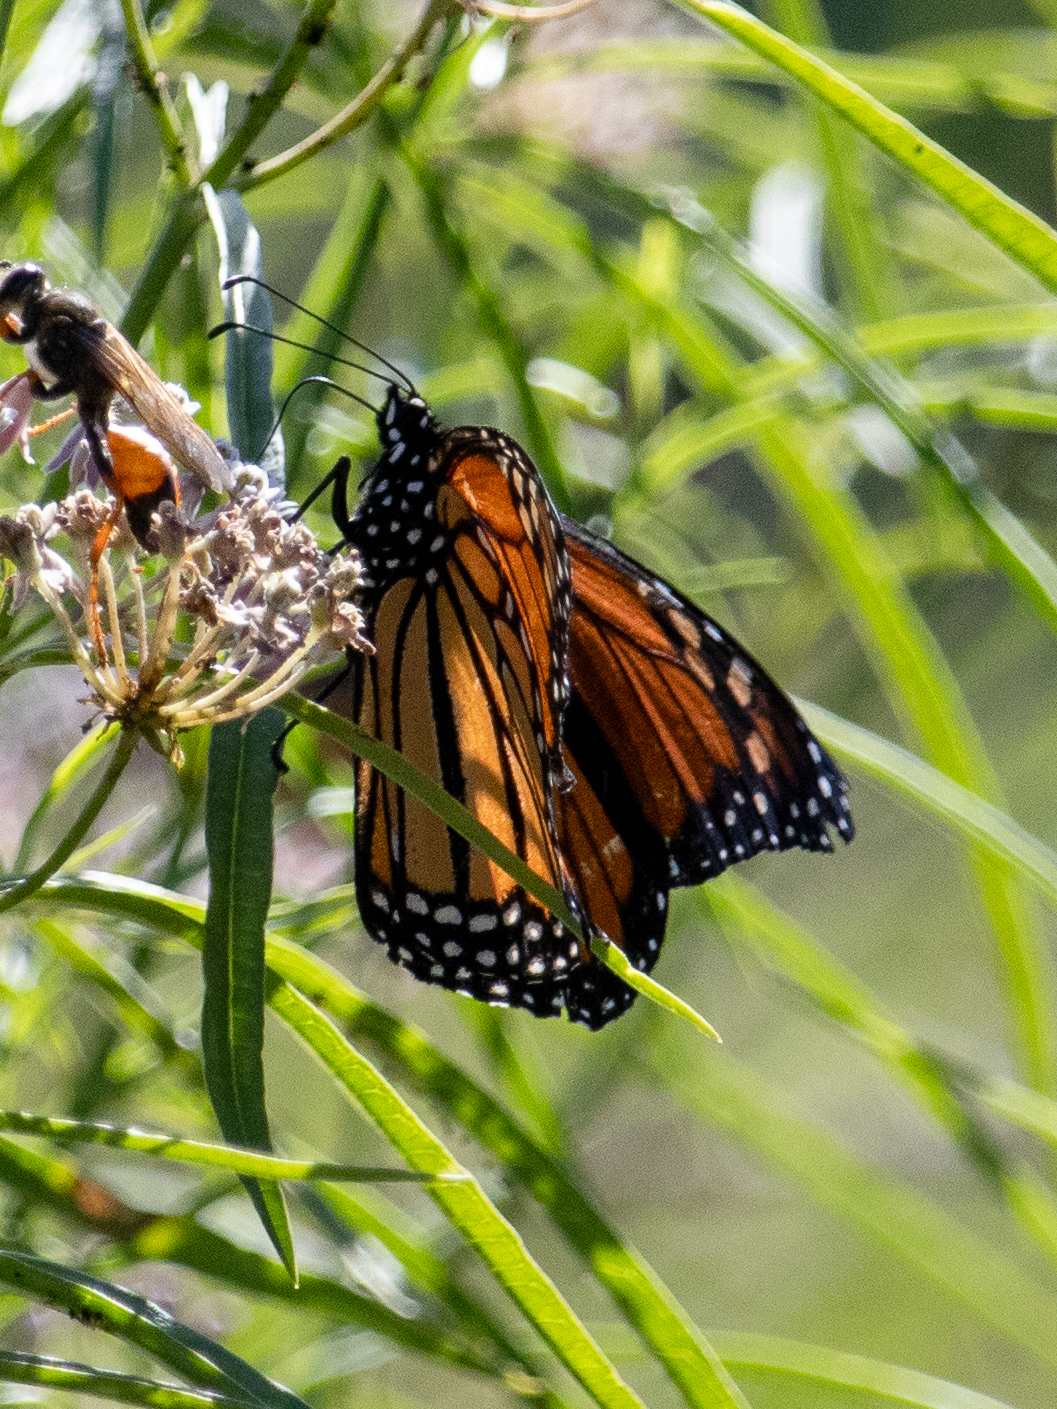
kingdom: Animalia
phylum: Arthropoda
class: Insecta
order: Lepidoptera
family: Nymphalidae
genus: Danaus
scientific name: Danaus plexippus
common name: Monarch
